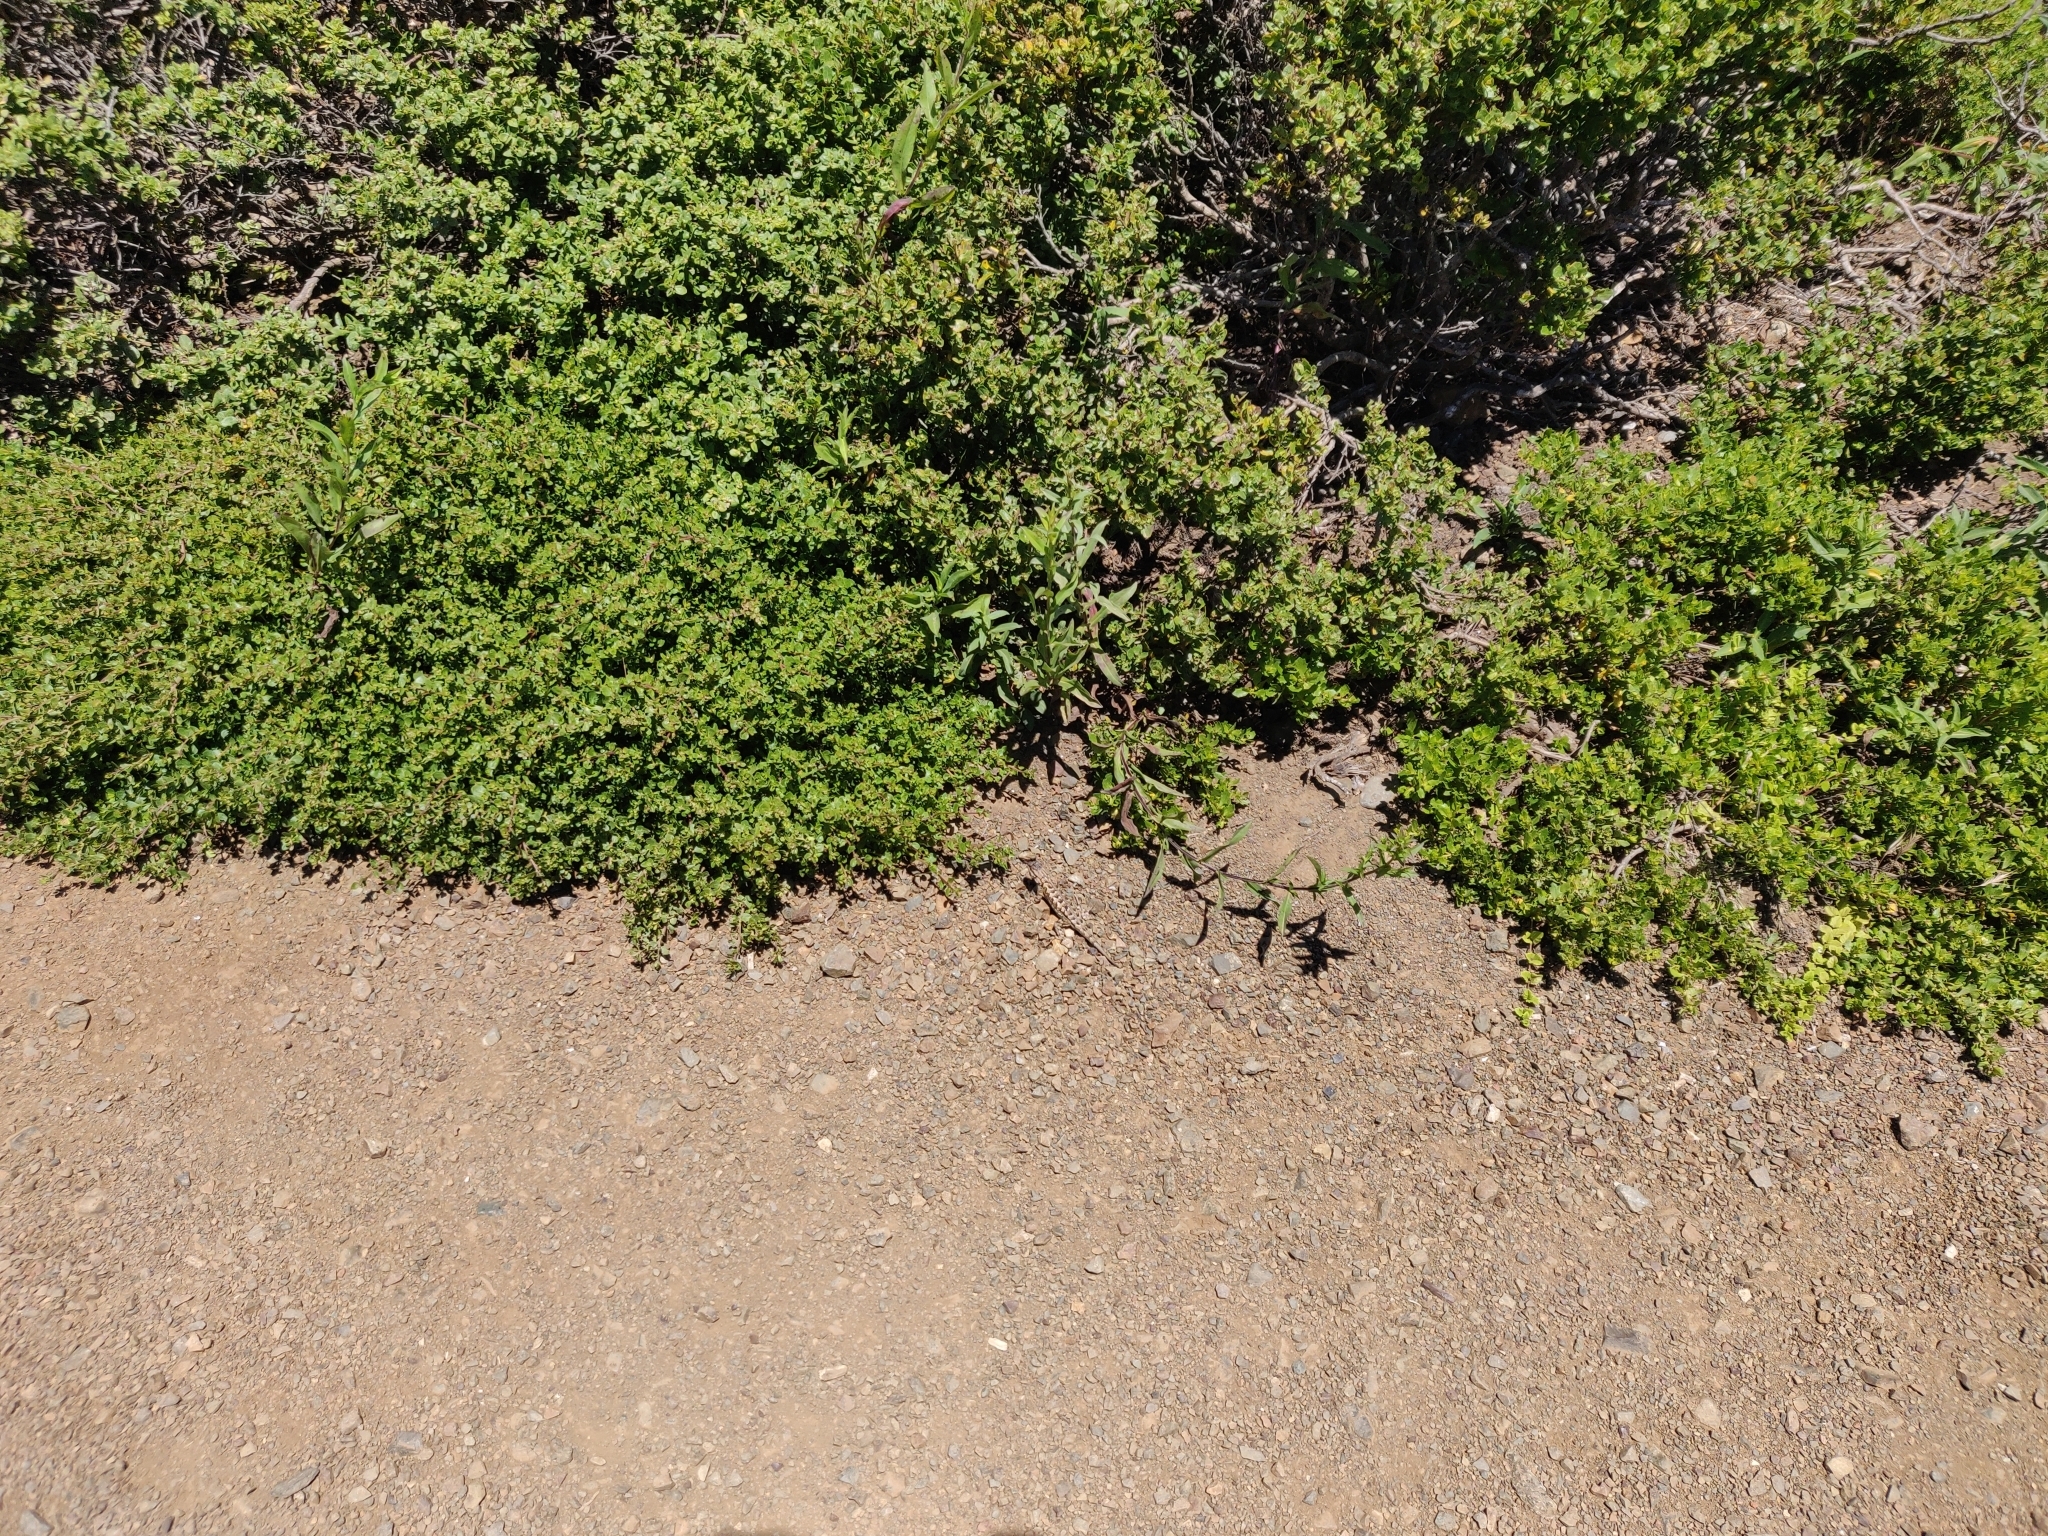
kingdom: Animalia
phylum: Chordata
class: Squamata
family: Phrynosomatidae
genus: Sceloporus
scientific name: Sceloporus occidentalis
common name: Western fence lizard
